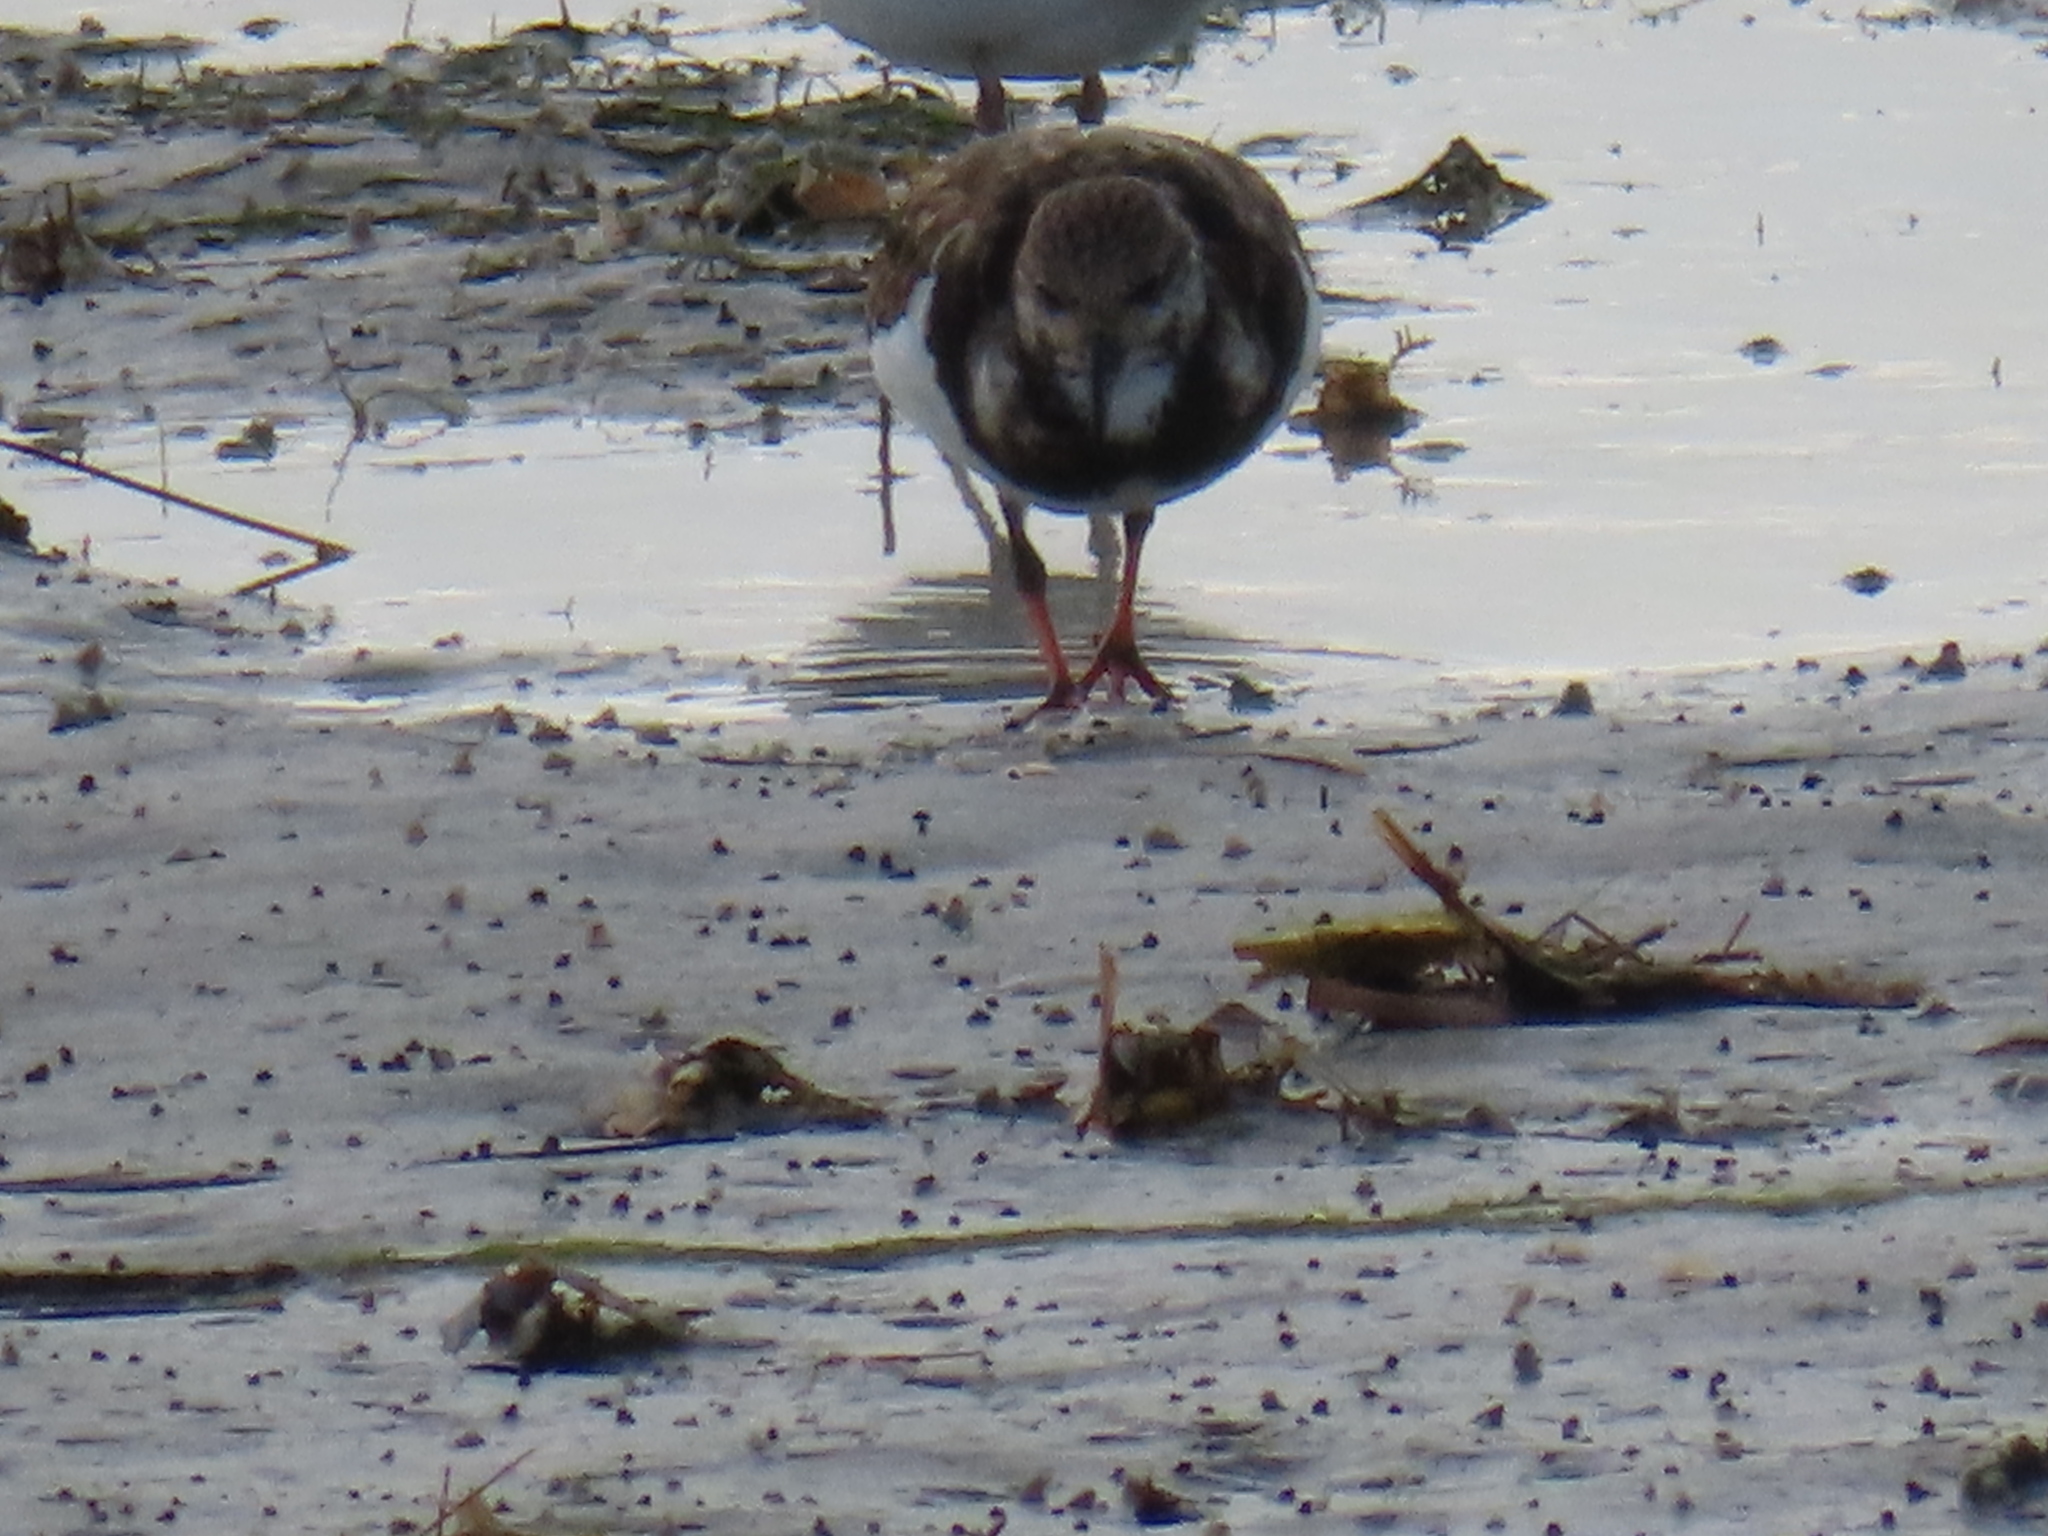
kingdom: Animalia
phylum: Chordata
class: Aves
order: Charadriiformes
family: Scolopacidae
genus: Arenaria
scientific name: Arenaria interpres
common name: Ruddy turnstone
